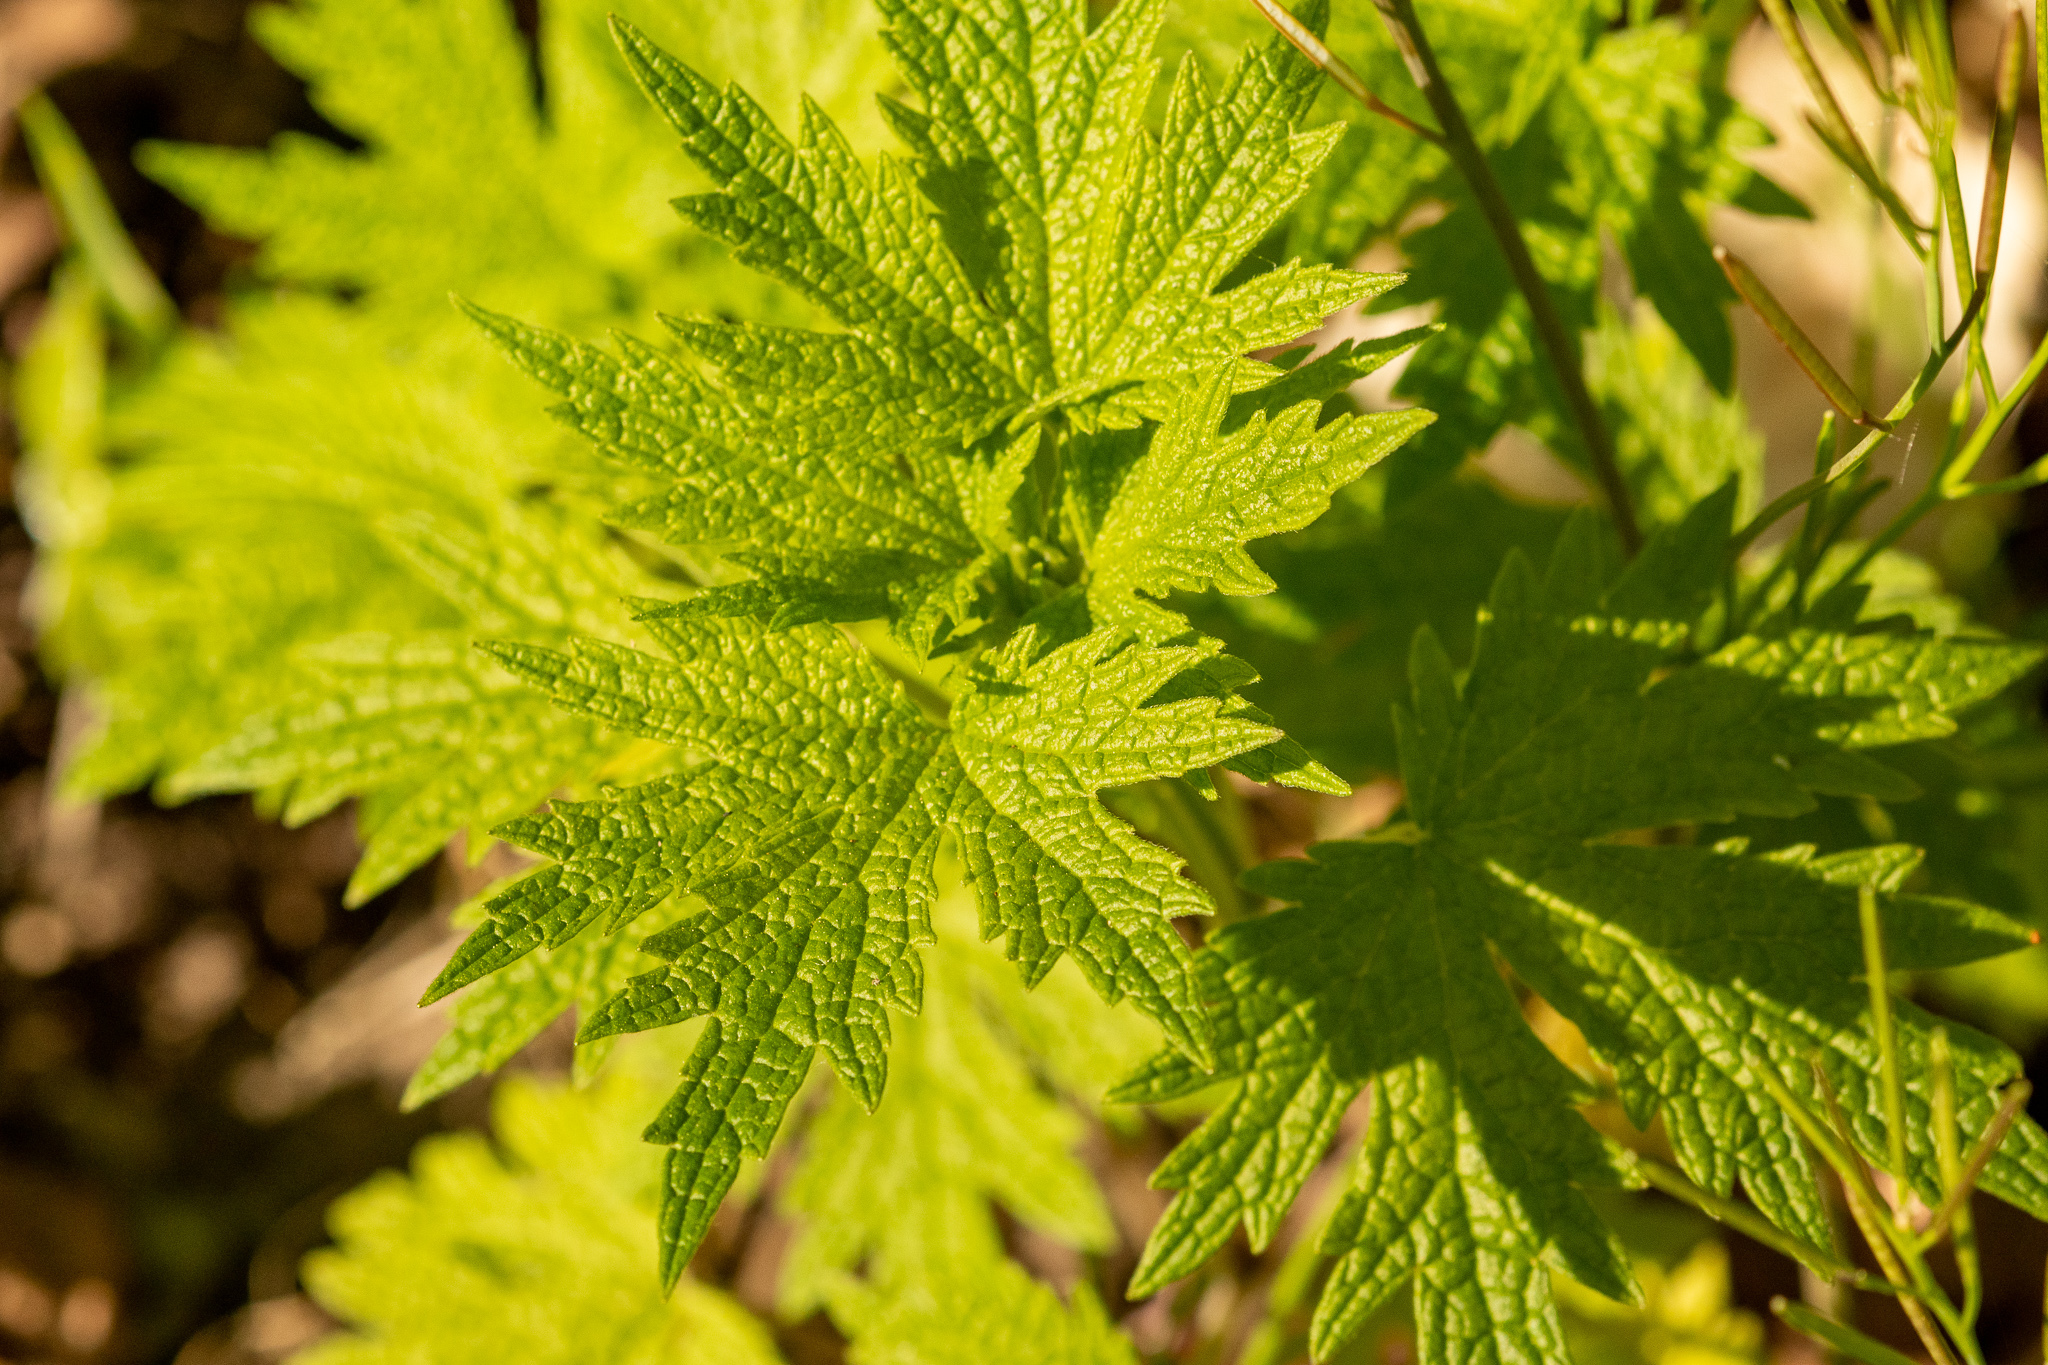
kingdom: Plantae
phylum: Tracheophyta
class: Magnoliopsida
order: Lamiales
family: Lamiaceae
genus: Leonurus
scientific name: Leonurus cardiaca
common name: Motherwort
